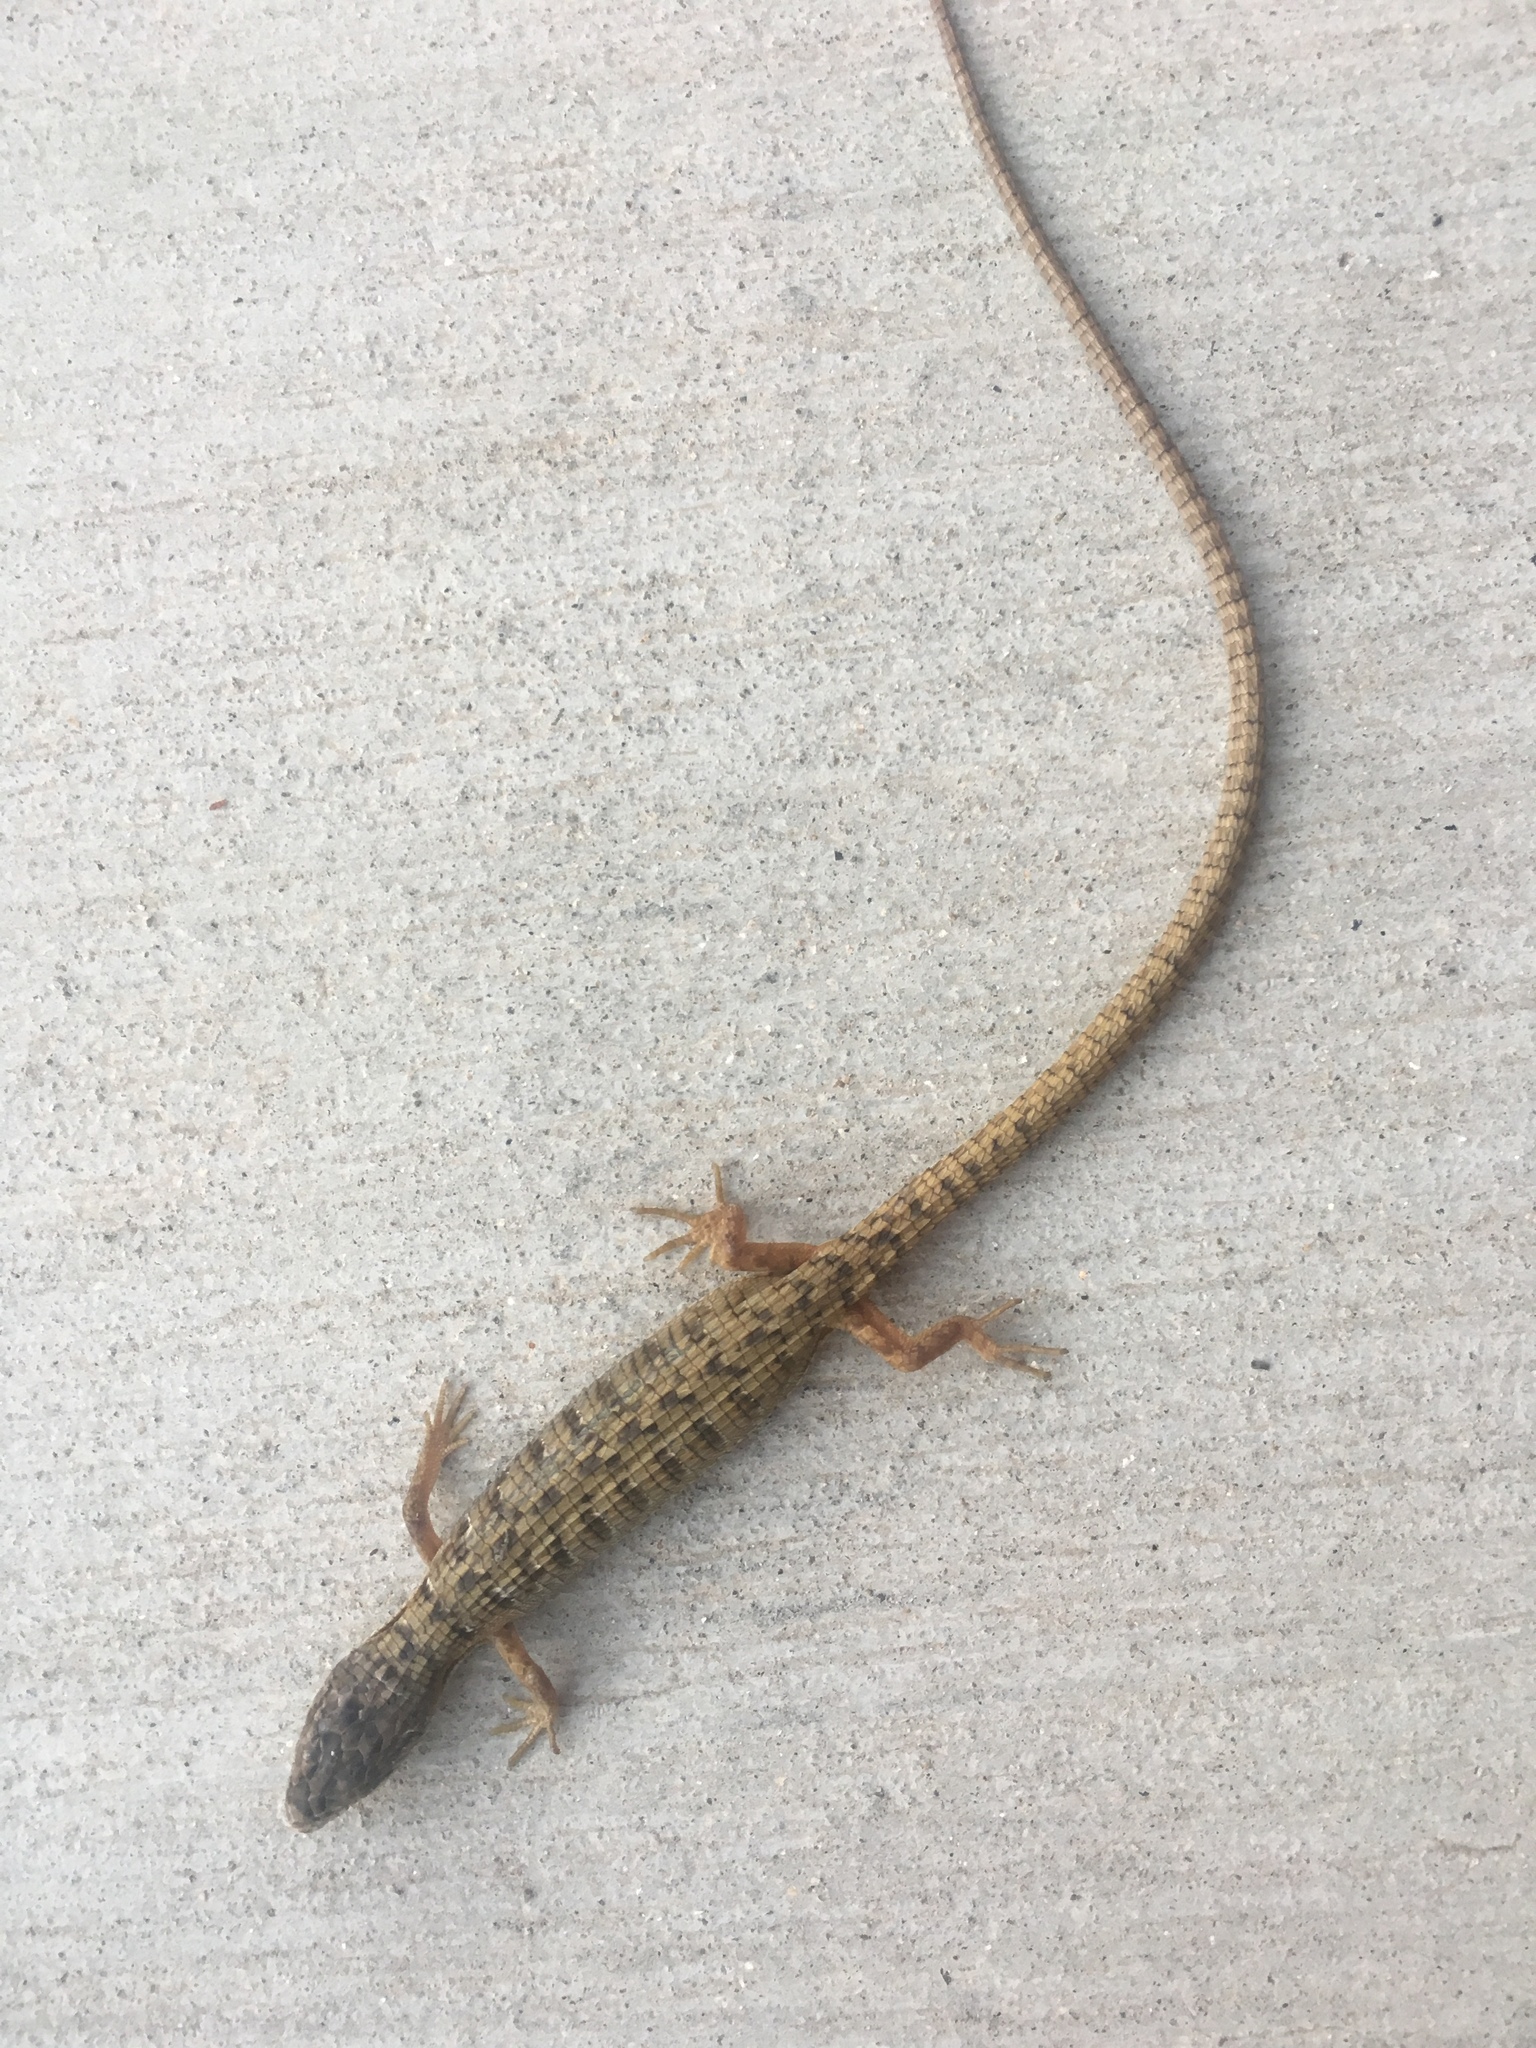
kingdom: Animalia
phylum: Chordata
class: Squamata
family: Anguidae
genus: Elgaria
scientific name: Elgaria multicarinata
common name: Southern alligator lizard
